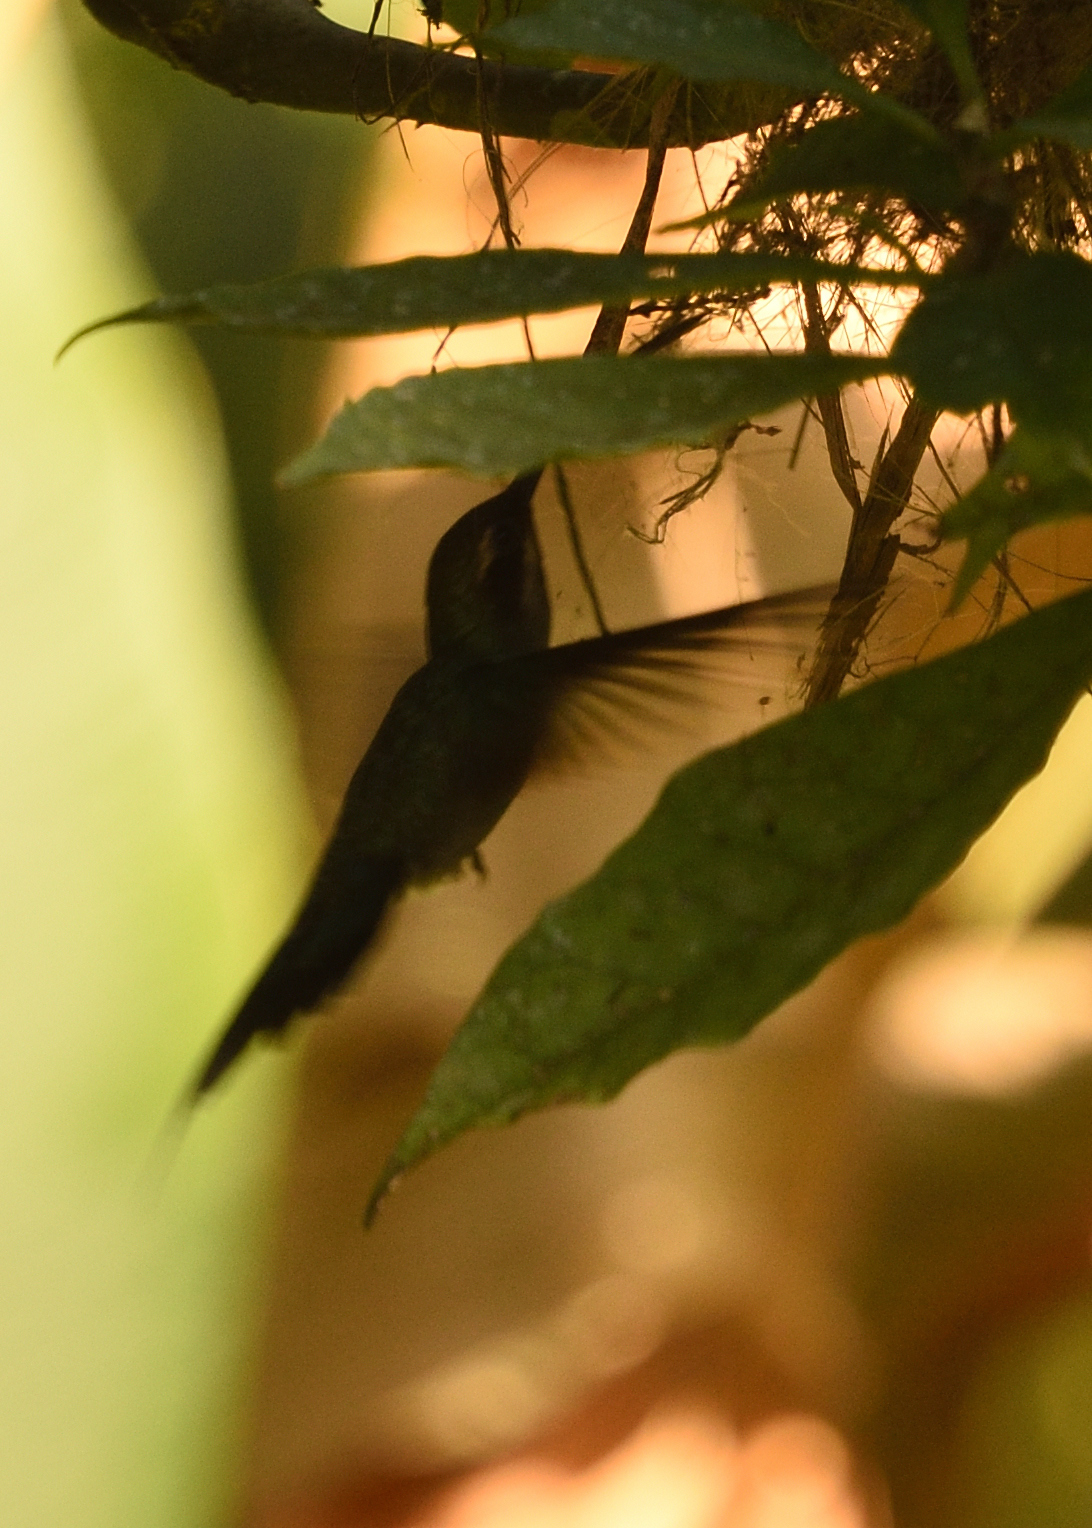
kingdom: Animalia
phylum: Chordata
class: Aves
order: Apodiformes
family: Trochilidae
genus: Phaethornis
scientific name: Phaethornis guy
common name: Green hermit
